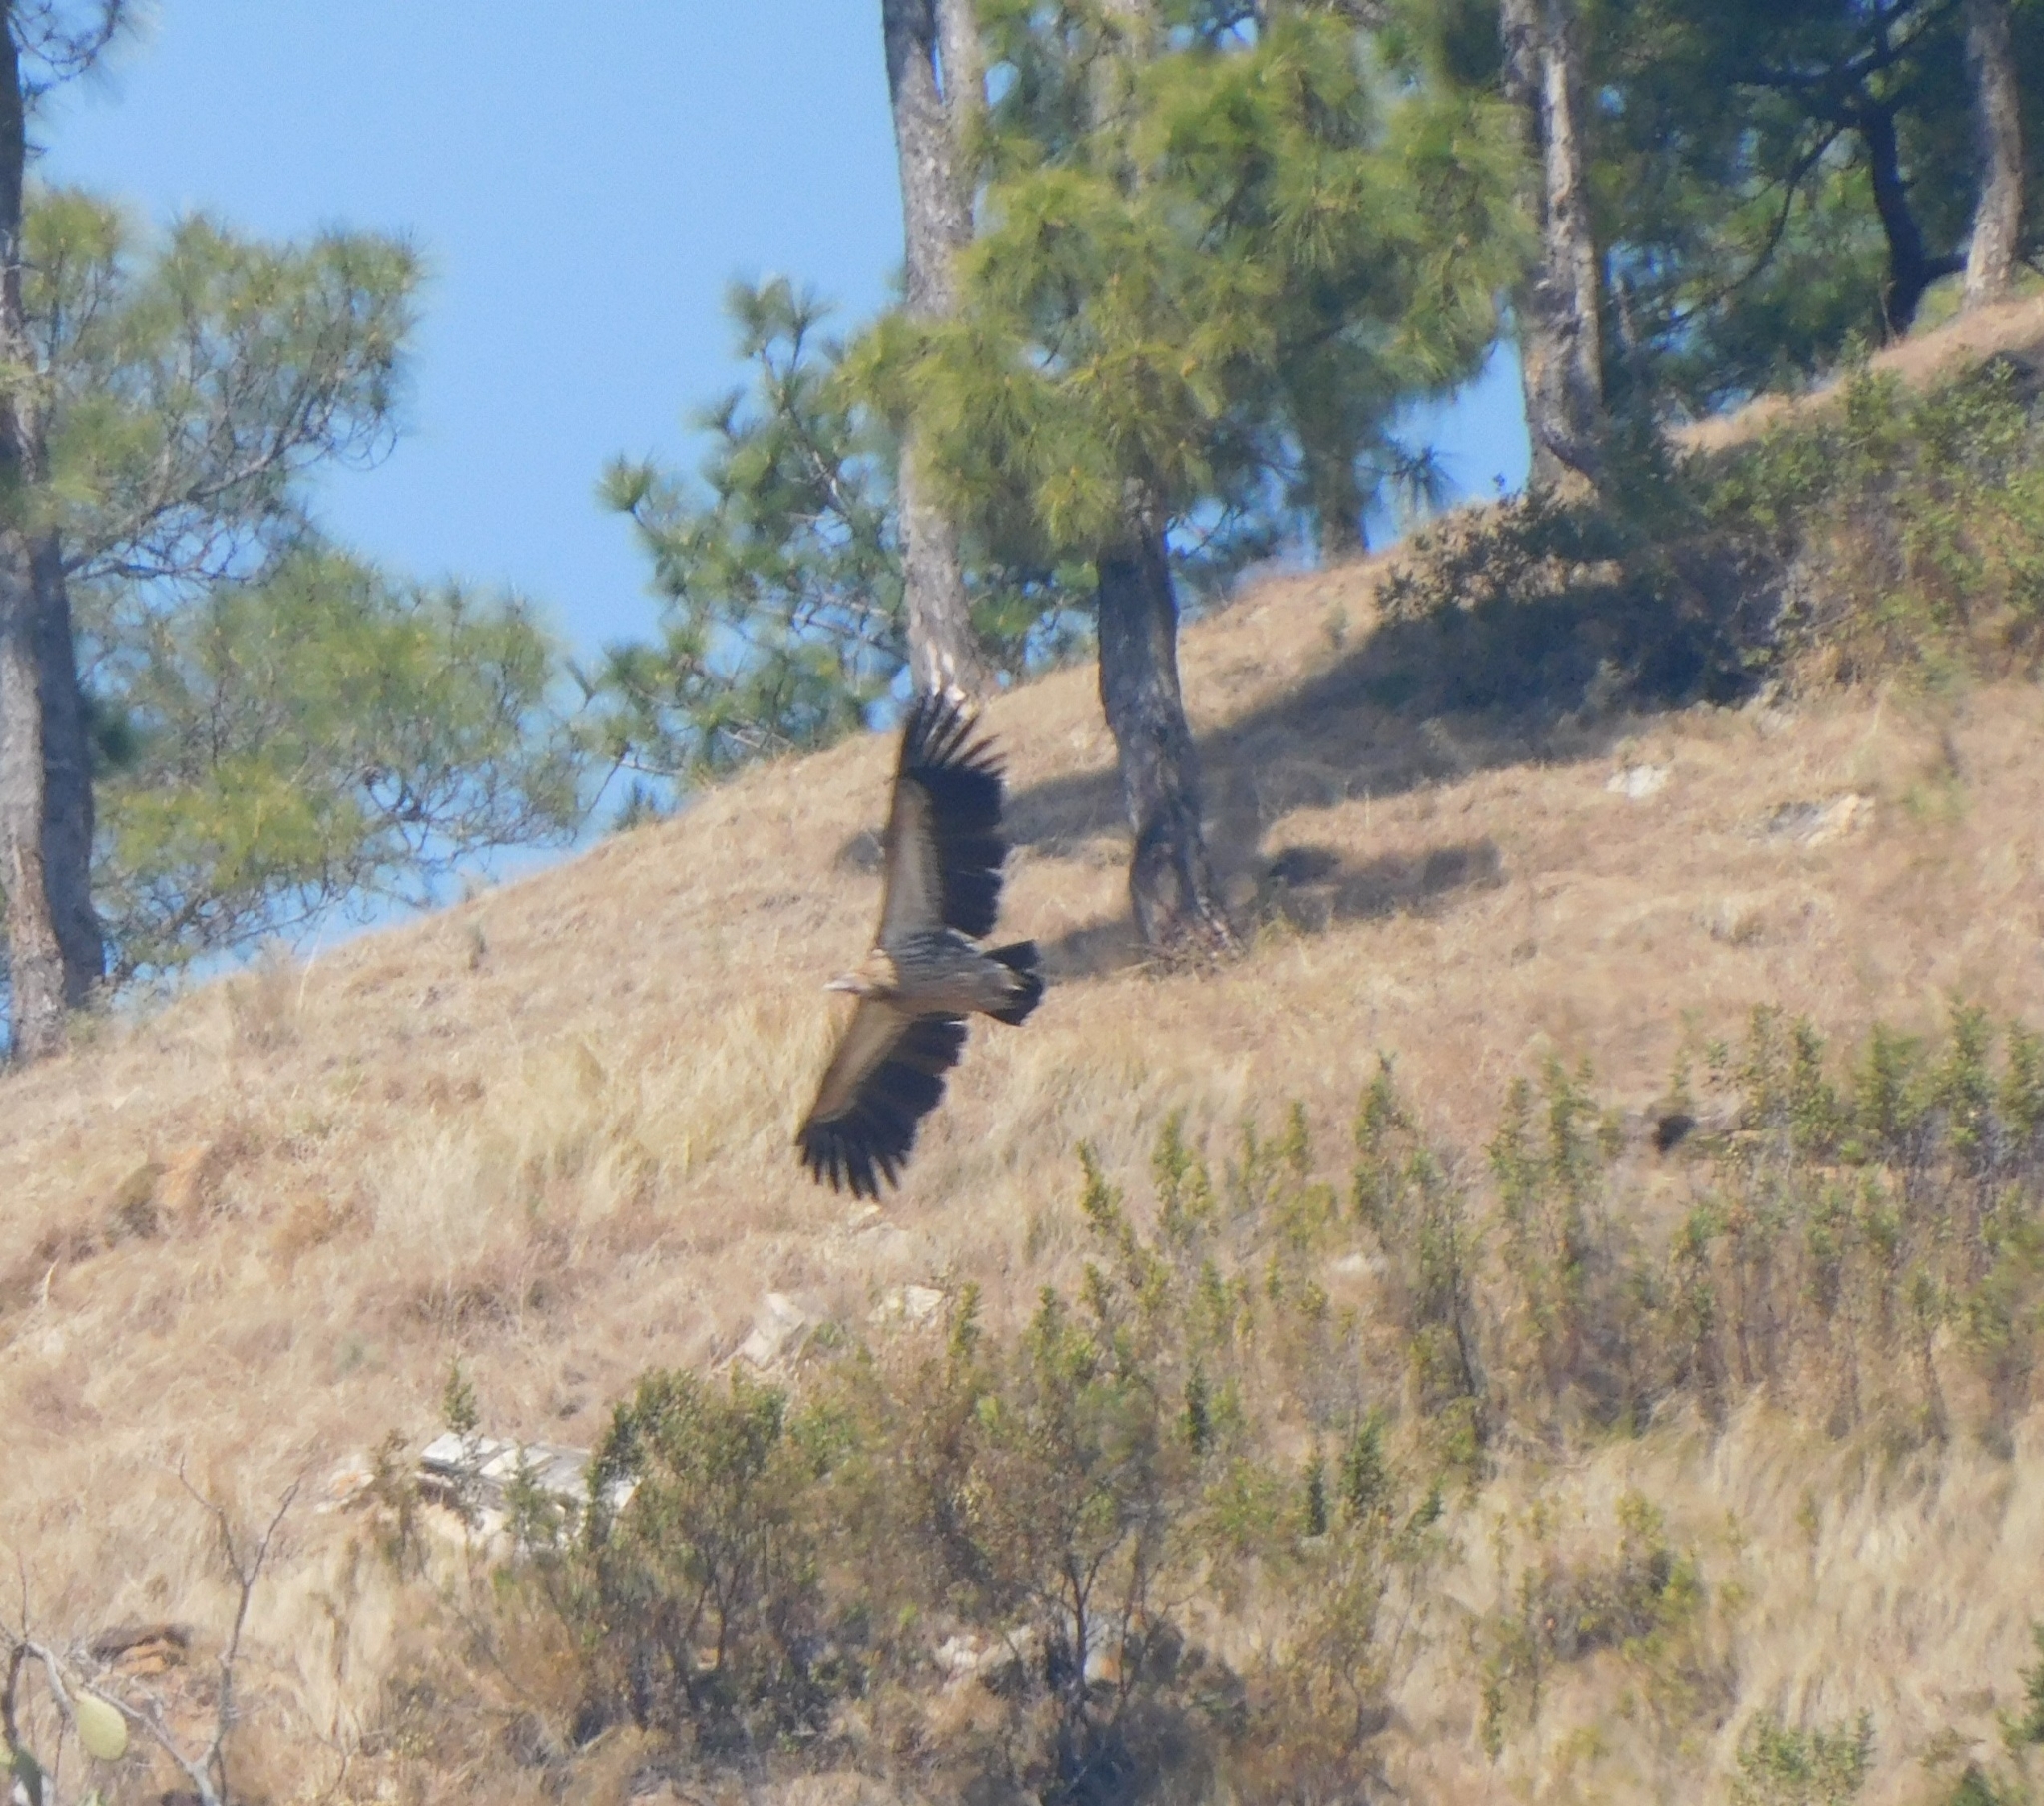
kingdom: Animalia
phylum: Chordata
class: Aves
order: Accipitriformes
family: Accipitridae
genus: Gyps
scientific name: Gyps himalayensis
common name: Himalayan griffon
